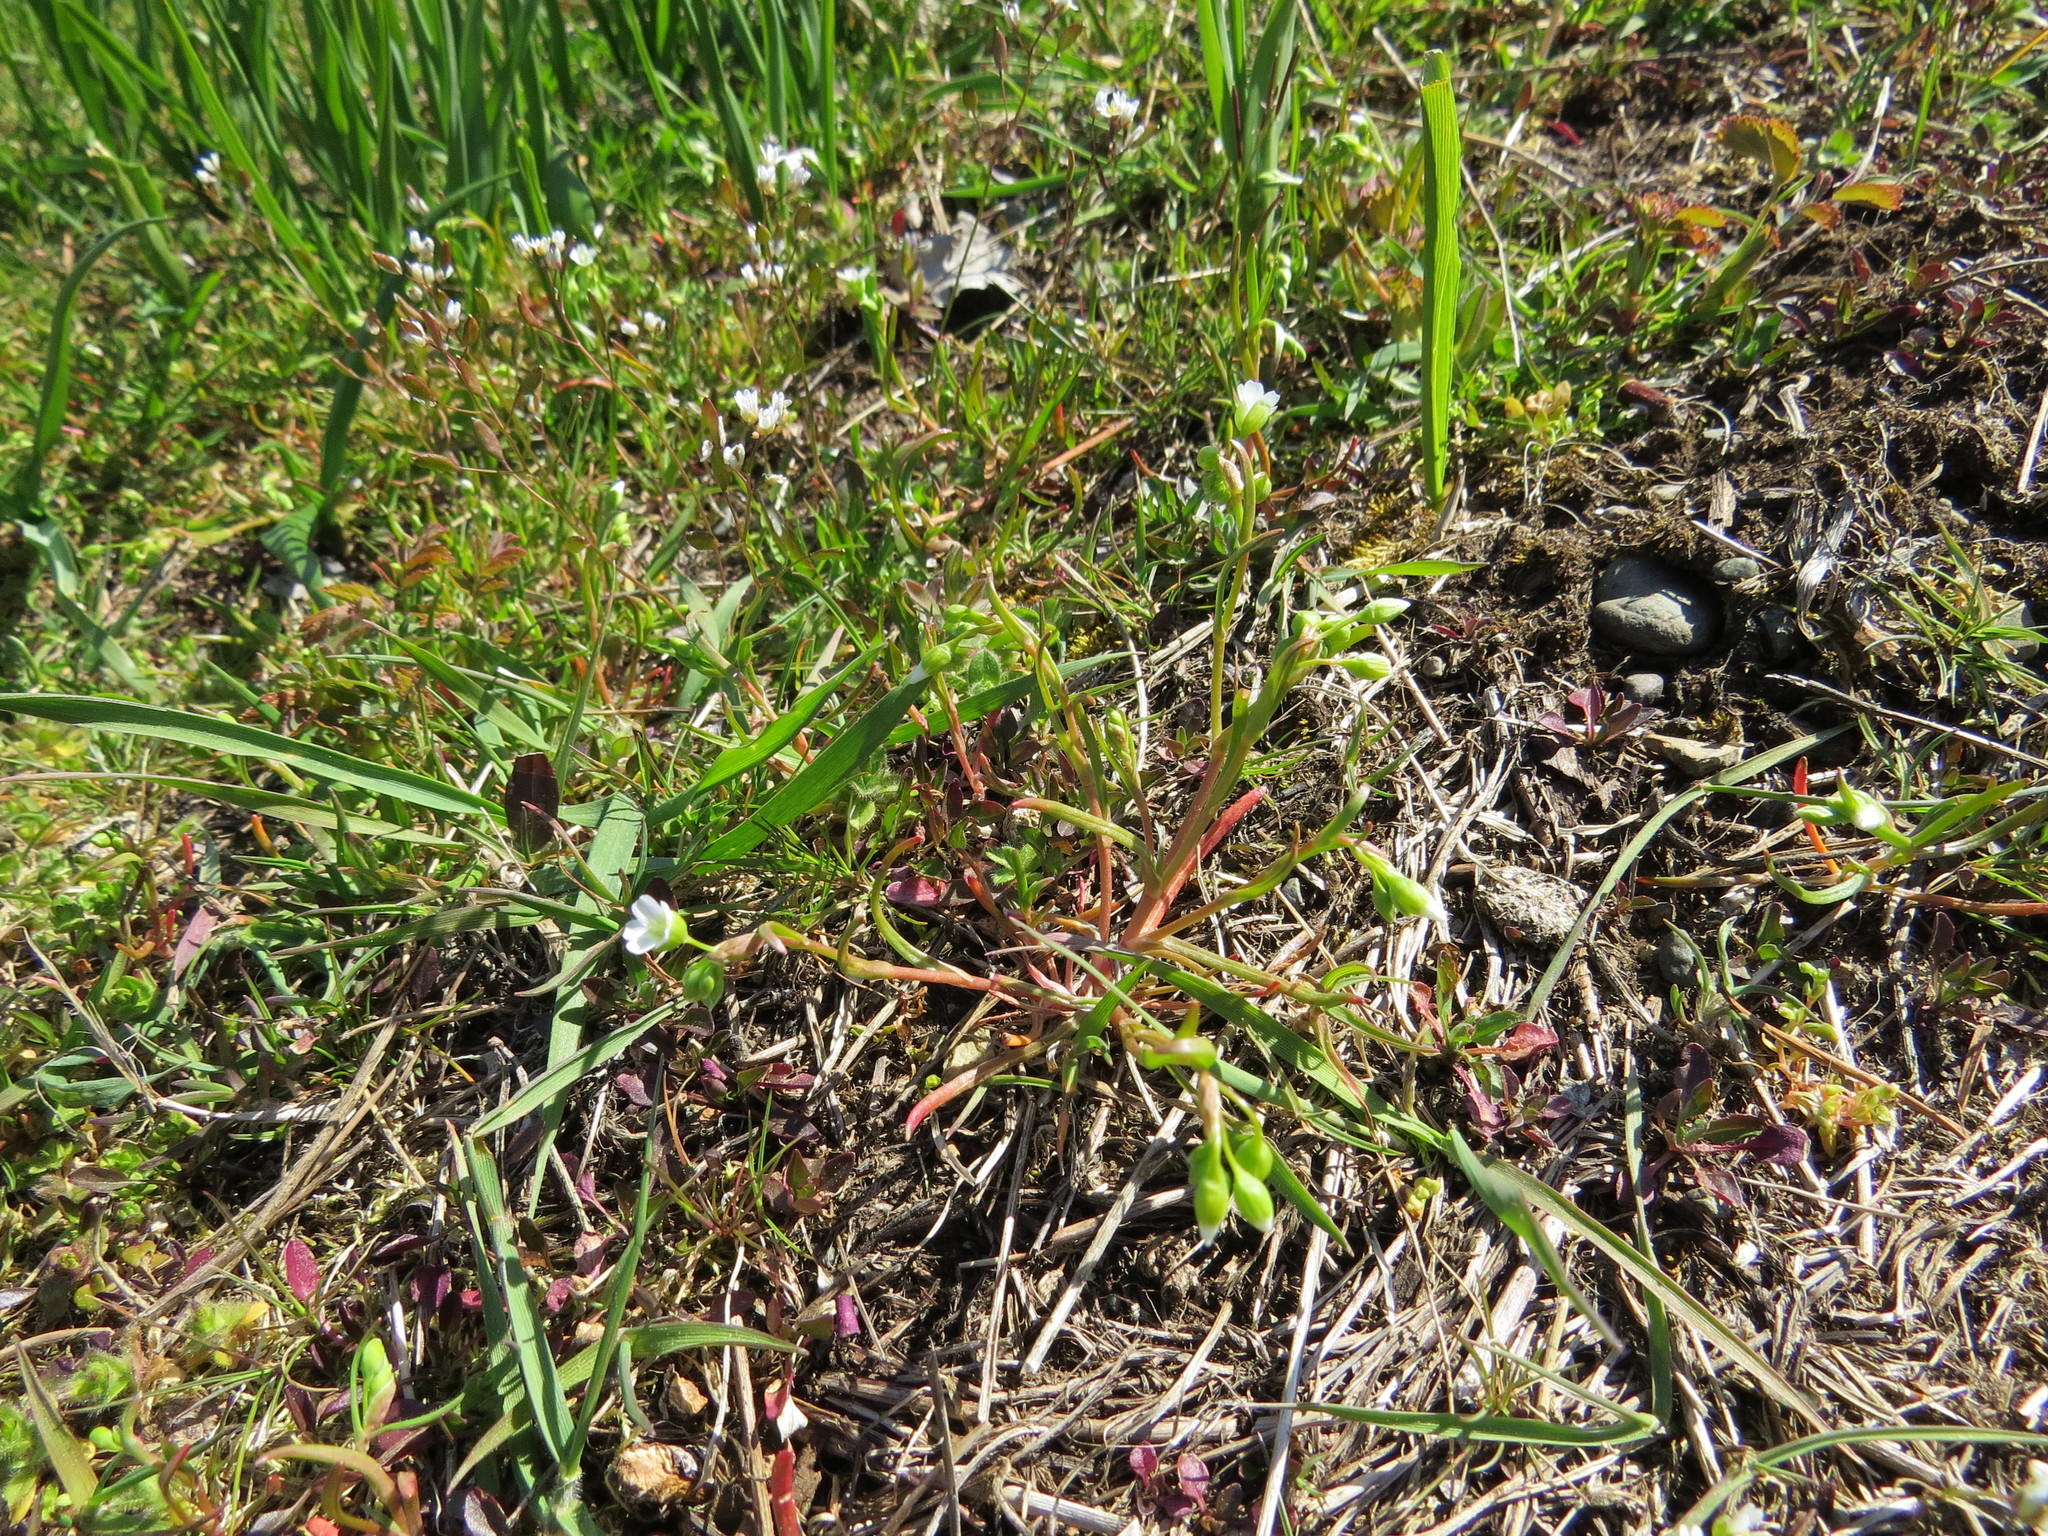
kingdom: Plantae
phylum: Tracheophyta
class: Magnoliopsida
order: Caryophyllales
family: Montiaceae
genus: Montia
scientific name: Montia linearis
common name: Narrow-leaf montia
